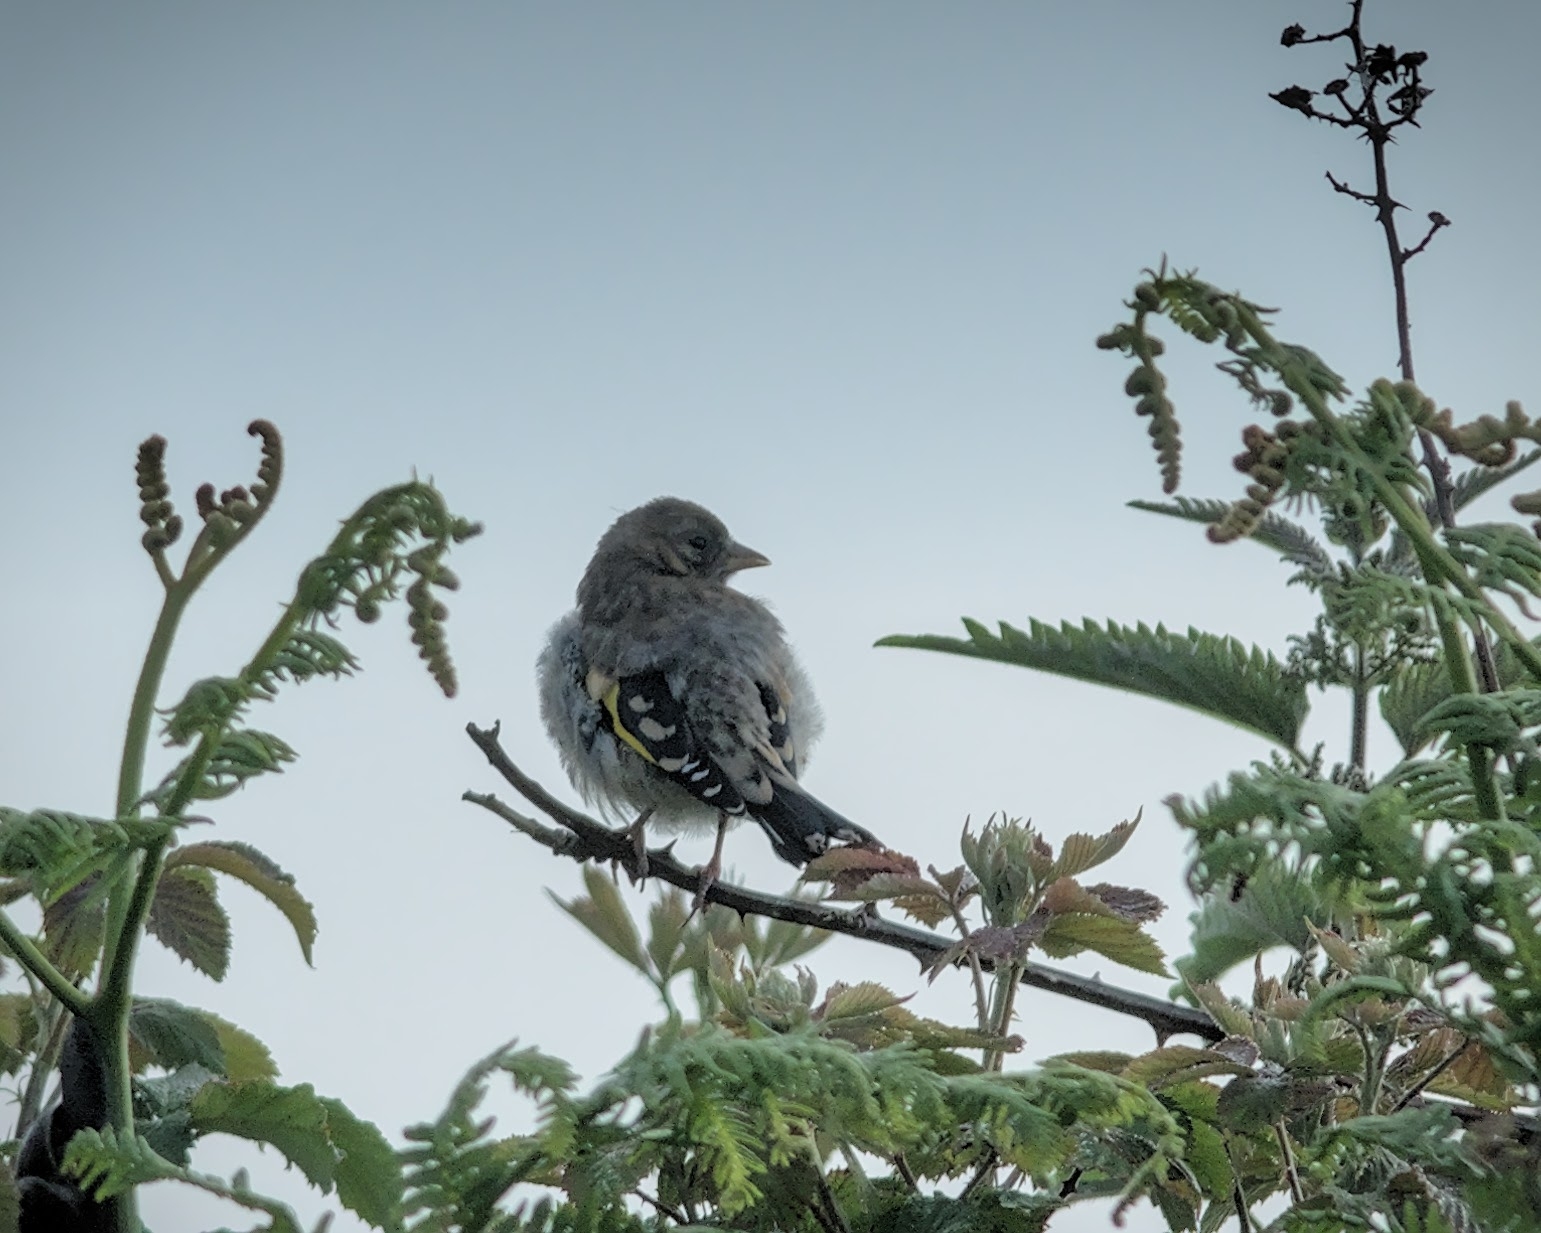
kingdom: Animalia
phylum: Chordata
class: Aves
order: Passeriformes
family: Fringillidae
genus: Carduelis
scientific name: Carduelis carduelis
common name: European goldfinch
